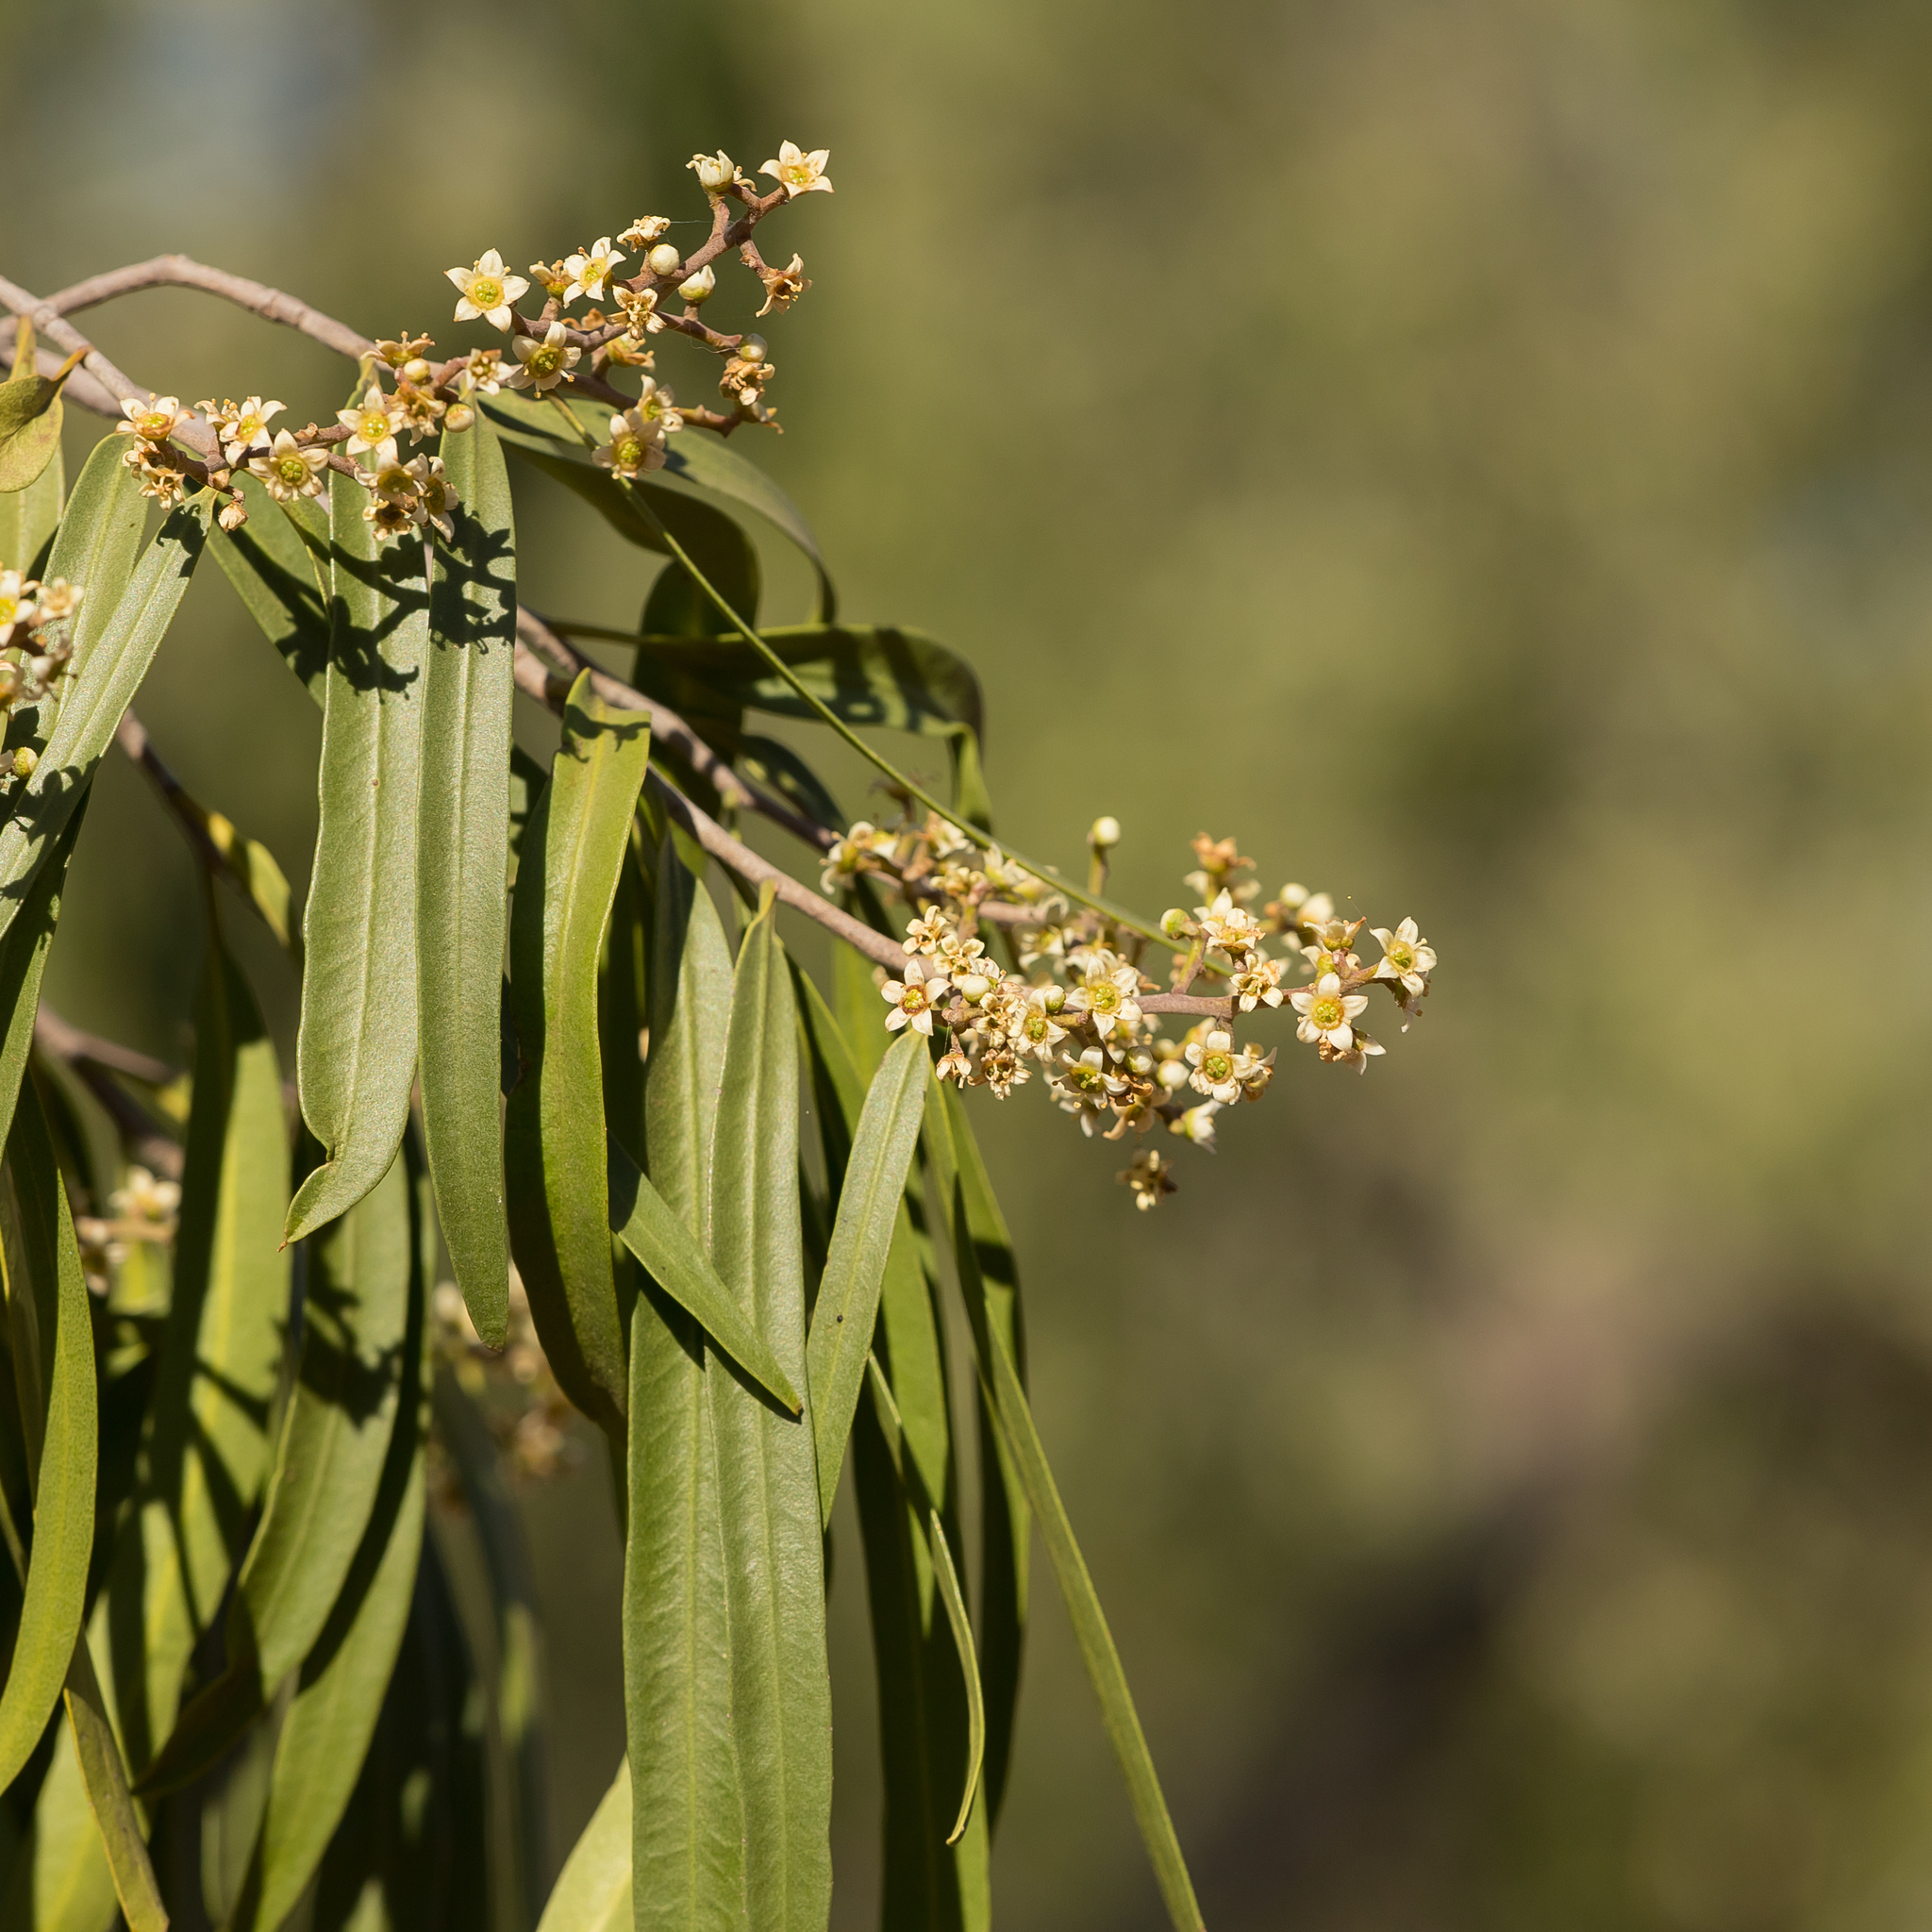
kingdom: Plantae
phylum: Tracheophyta
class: Magnoliopsida
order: Sapindales
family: Rutaceae
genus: Geijera
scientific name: Geijera parviflora
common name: Wilga
